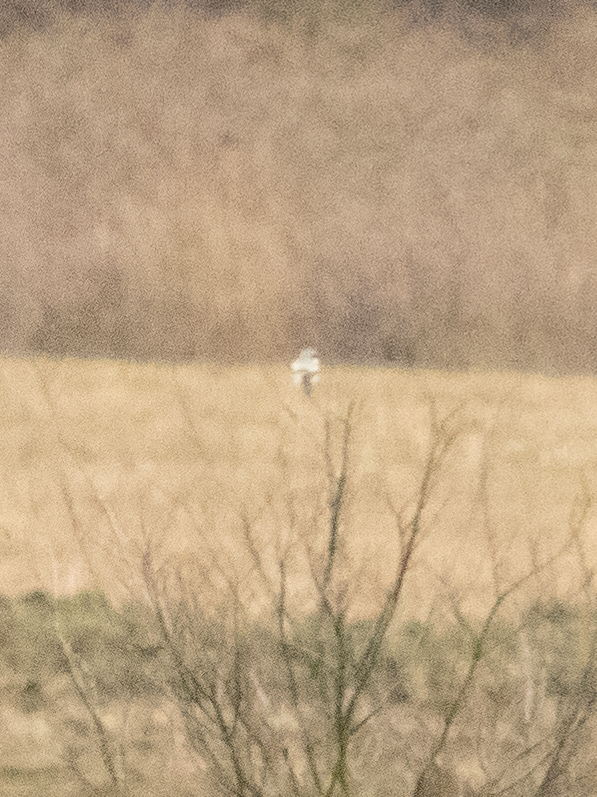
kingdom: Animalia
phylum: Chordata
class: Aves
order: Passeriformes
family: Laniidae
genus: Lanius
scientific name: Lanius excubitor
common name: Great grey shrike
